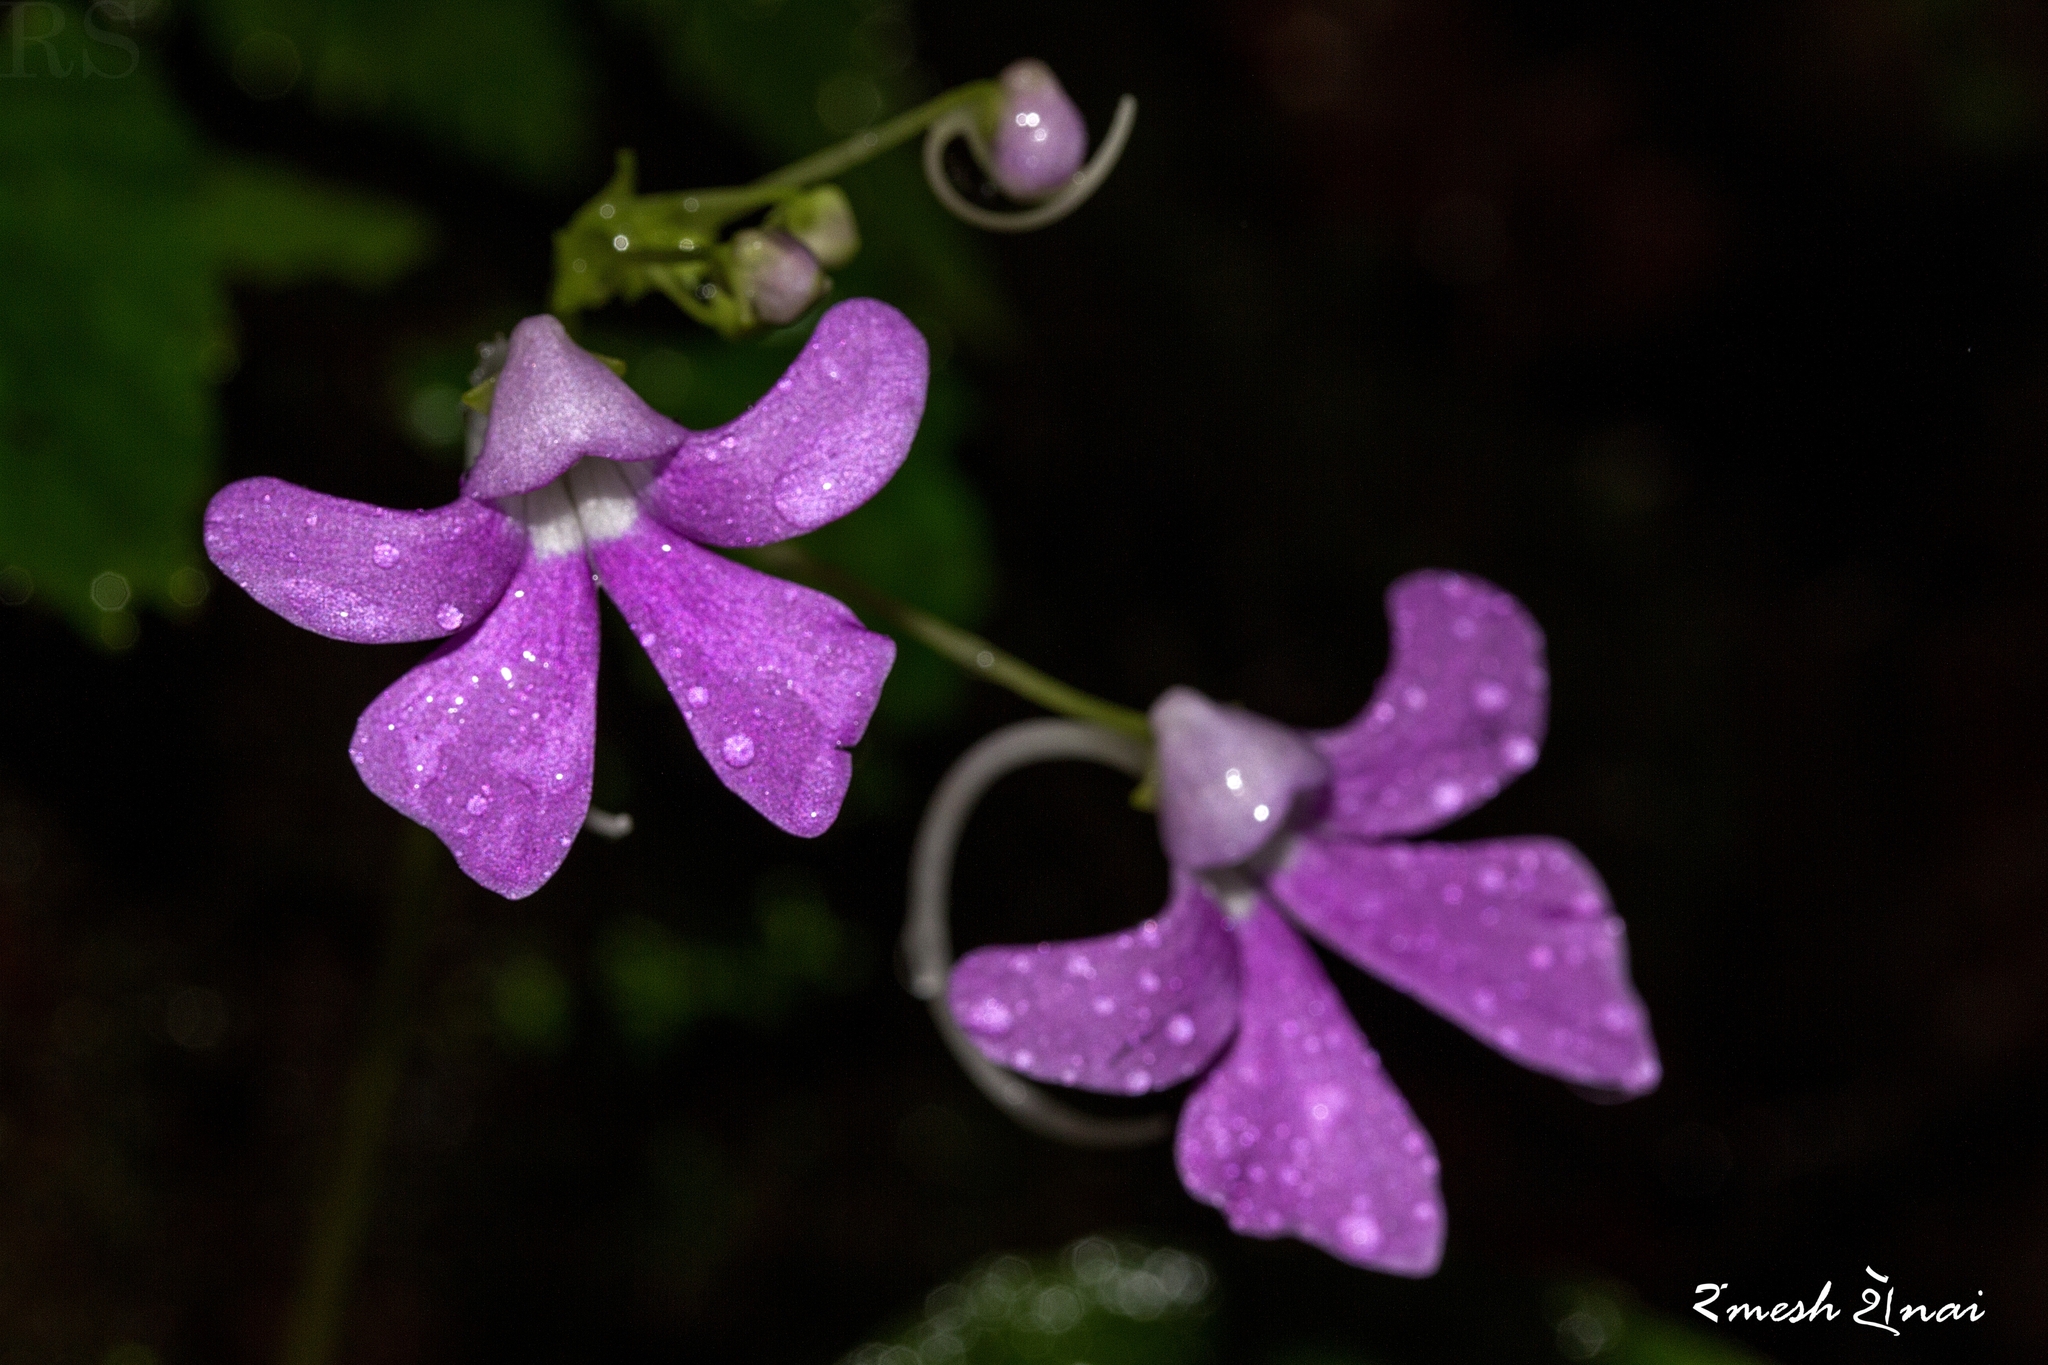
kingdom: Plantae
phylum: Tracheophyta
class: Magnoliopsida
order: Ericales
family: Balsaminaceae
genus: Impatiens
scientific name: Impatiens acaulis
